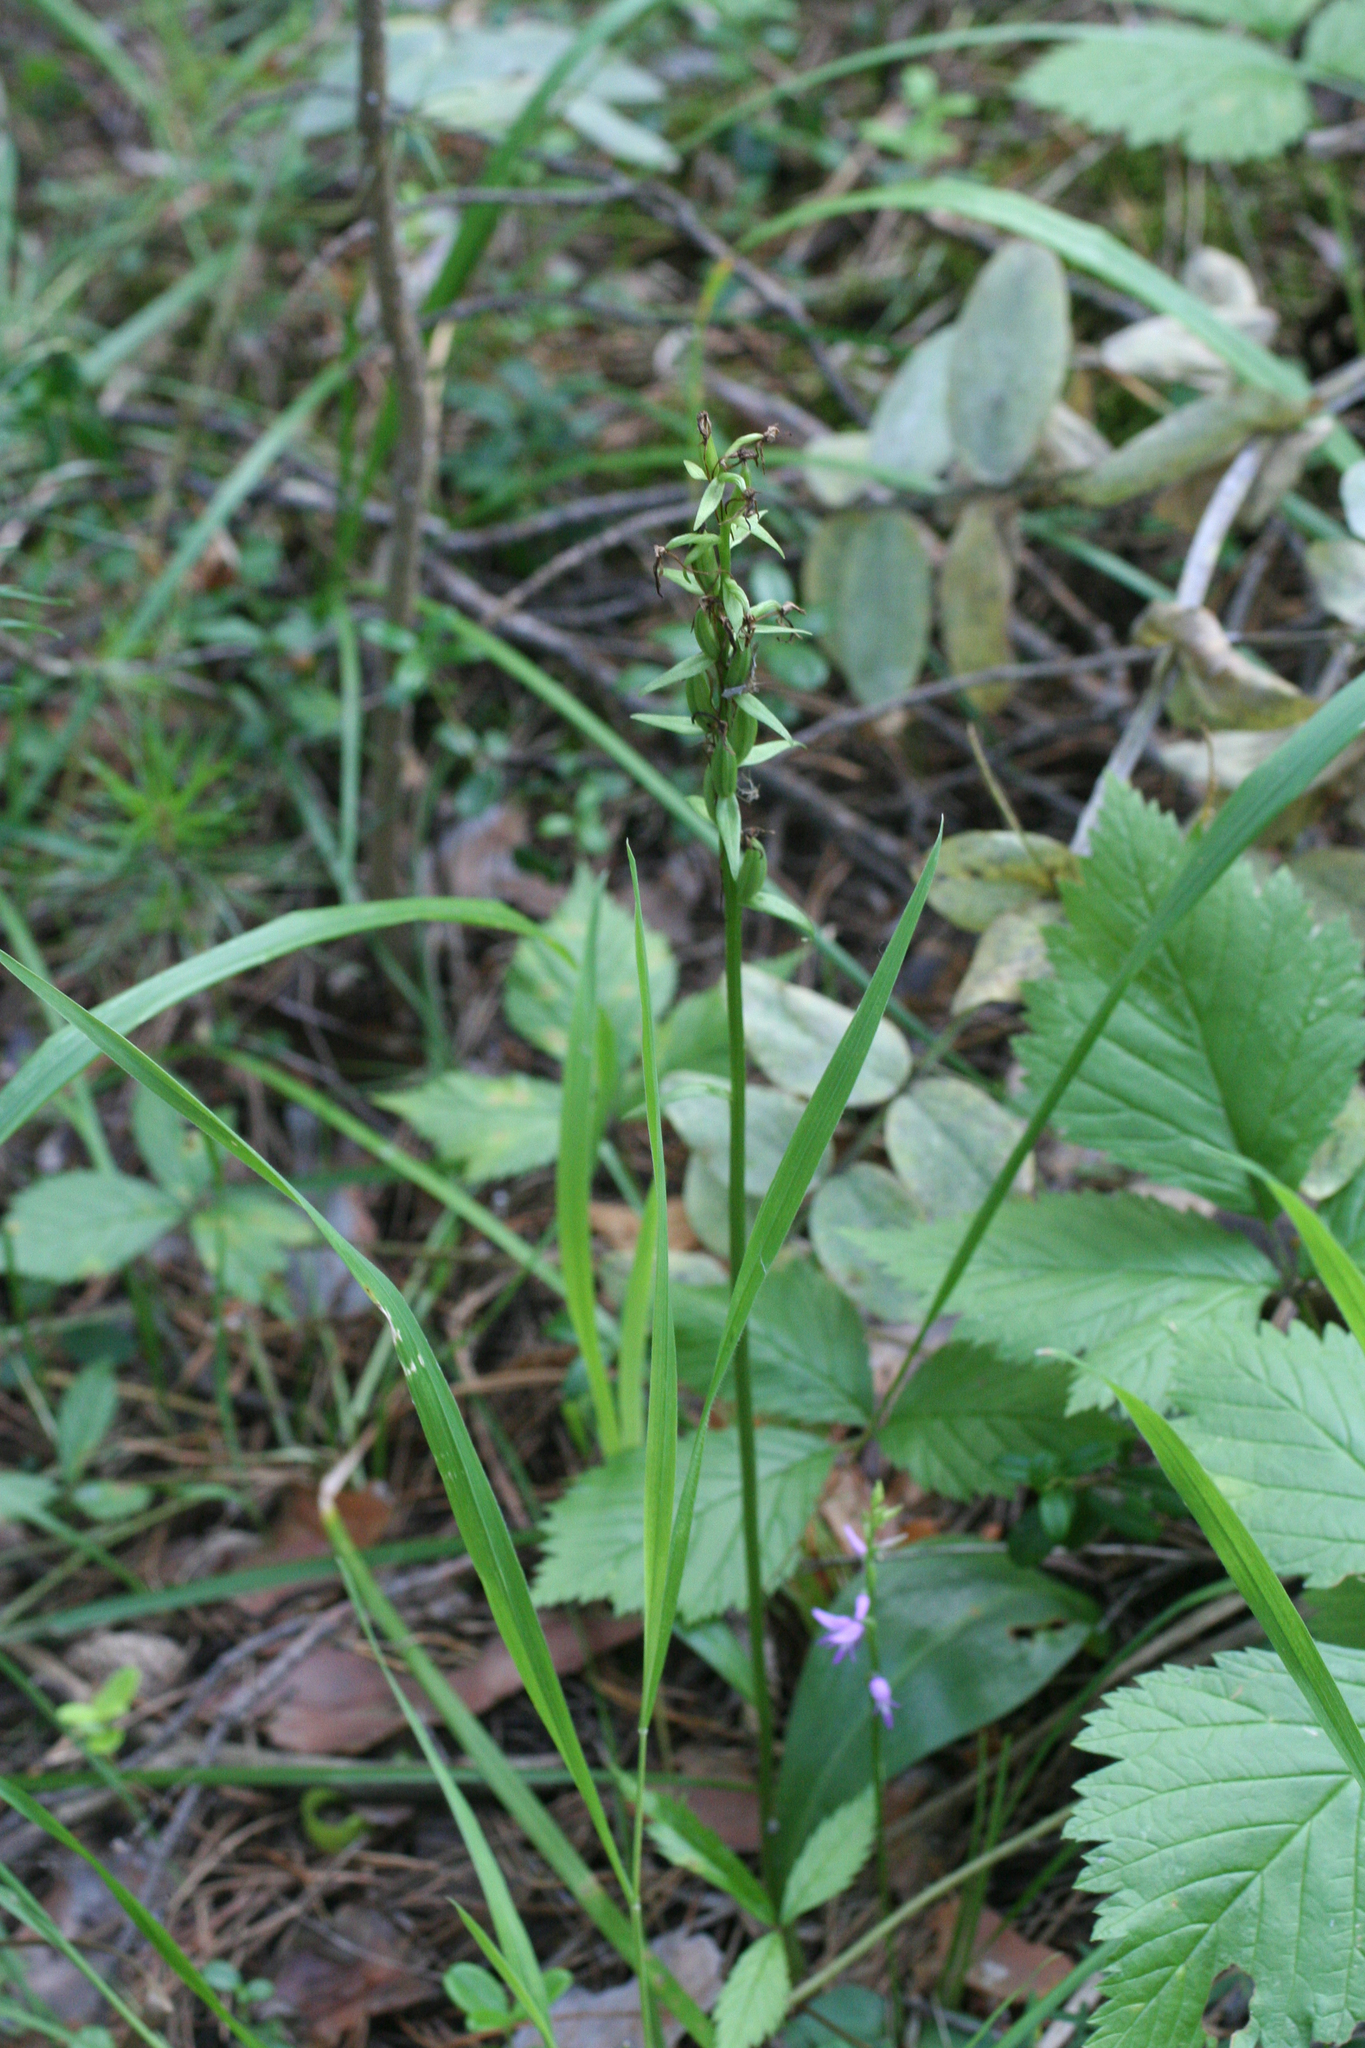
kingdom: Plantae
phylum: Tracheophyta
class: Liliopsida
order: Asparagales
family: Orchidaceae
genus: Platanthera
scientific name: Platanthera bifolia
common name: Lesser butterfly-orchid
